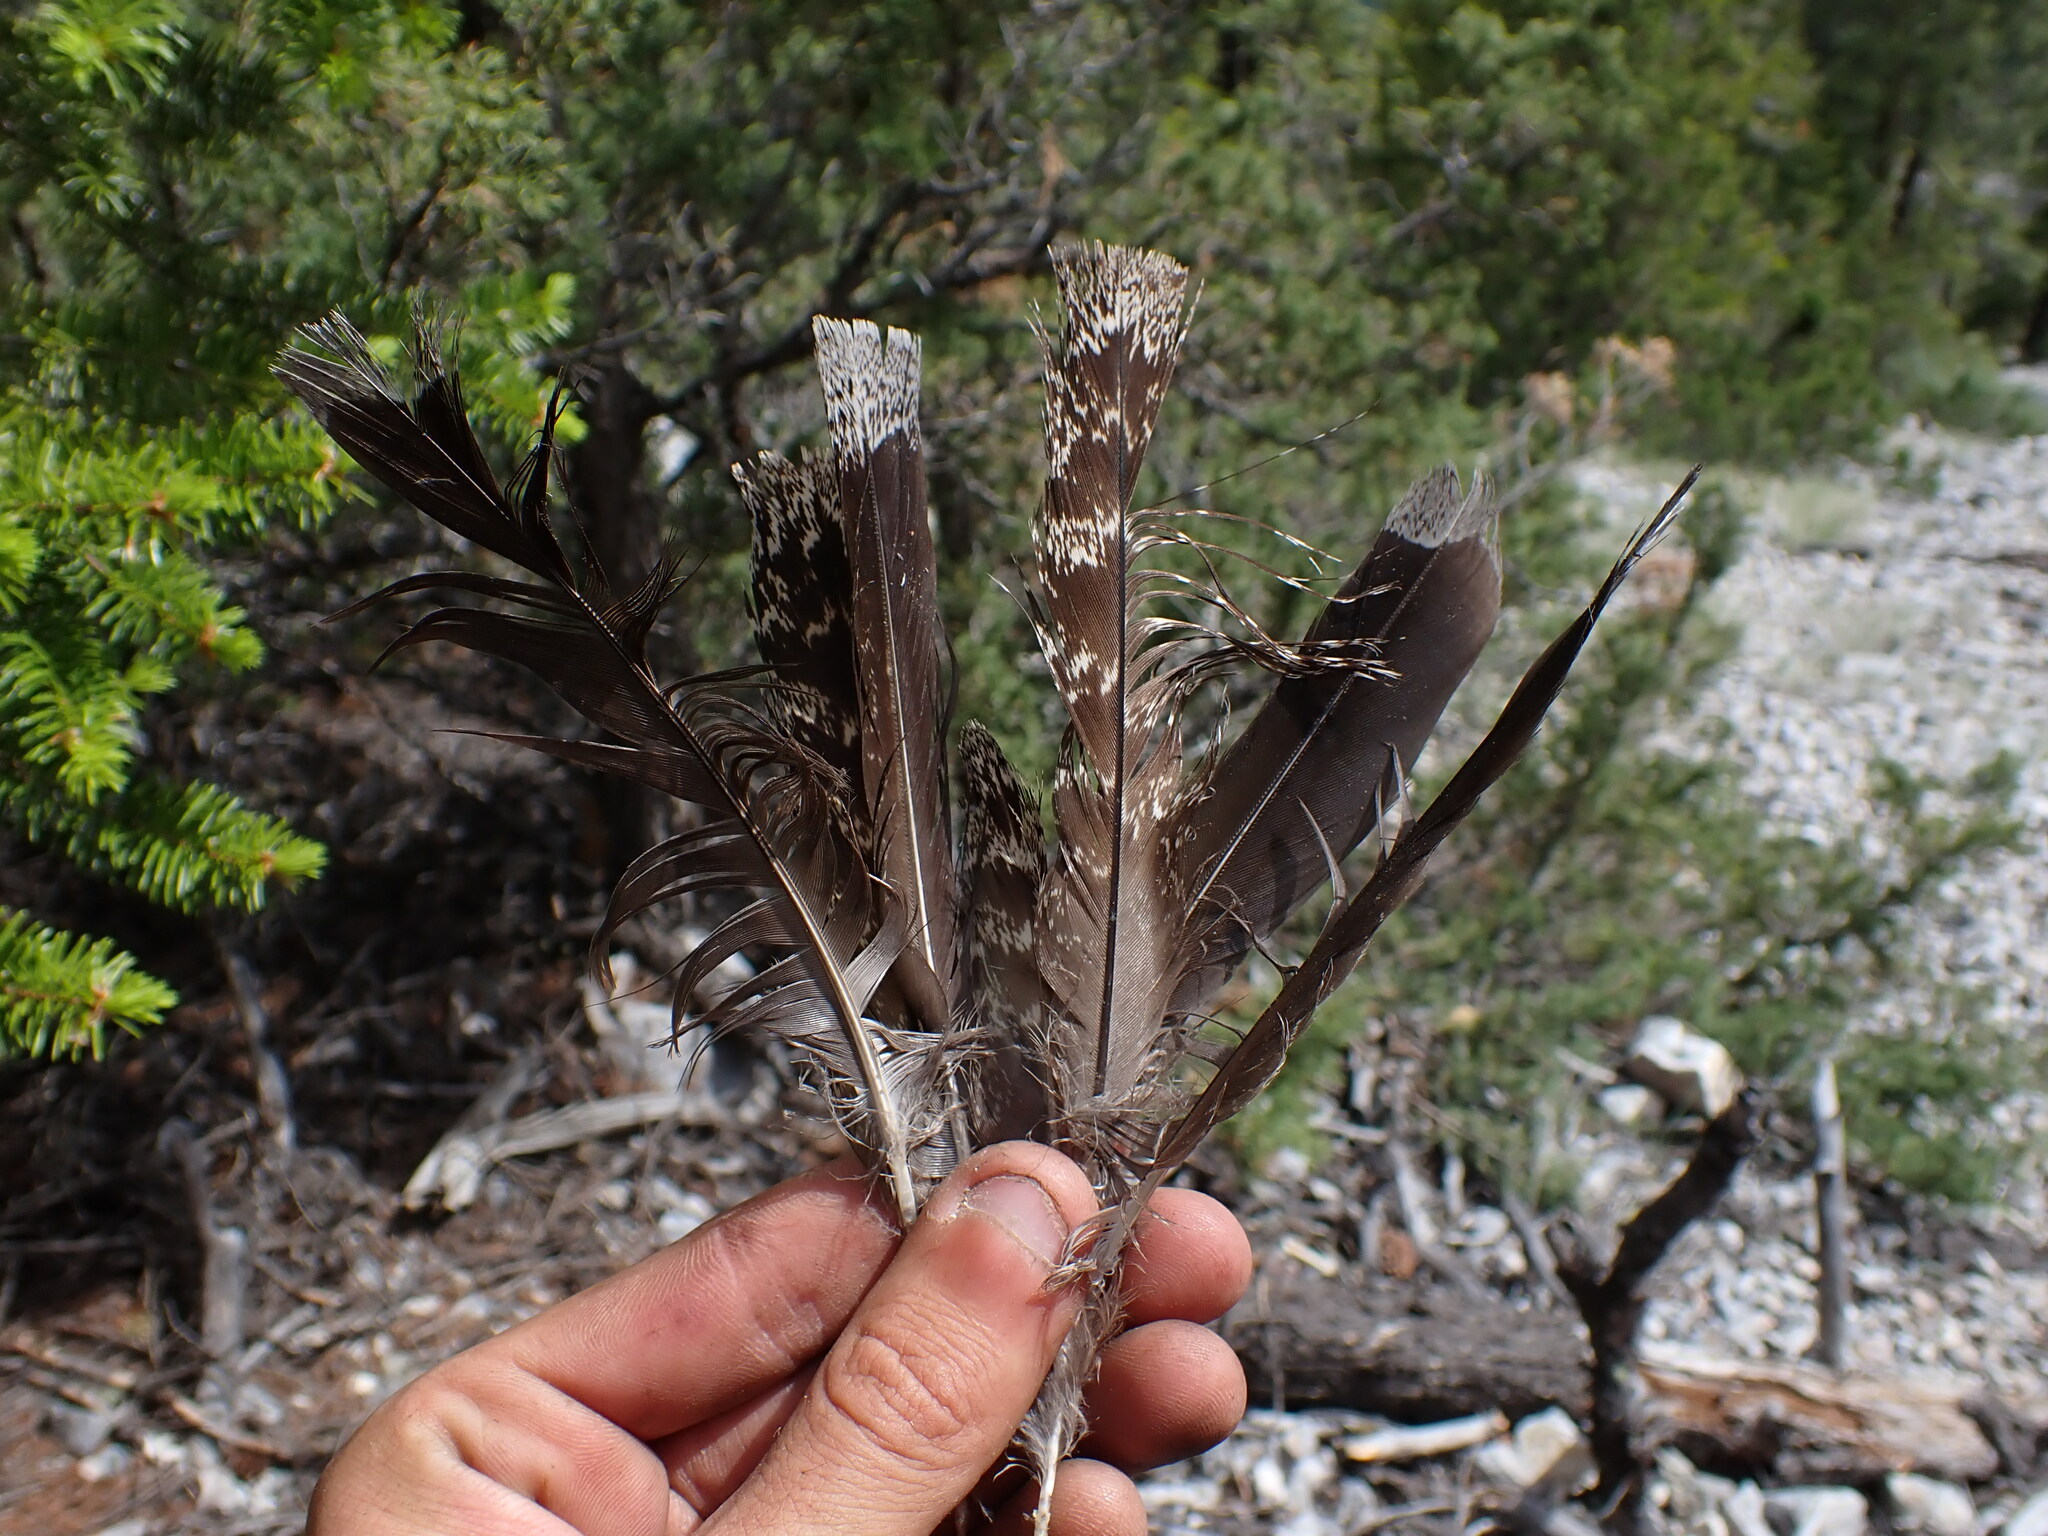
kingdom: Animalia
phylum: Chordata
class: Aves
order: Galliformes
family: Phasianidae
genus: Dendragapus
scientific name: Dendragapus obscurus
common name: Dusky grouse
